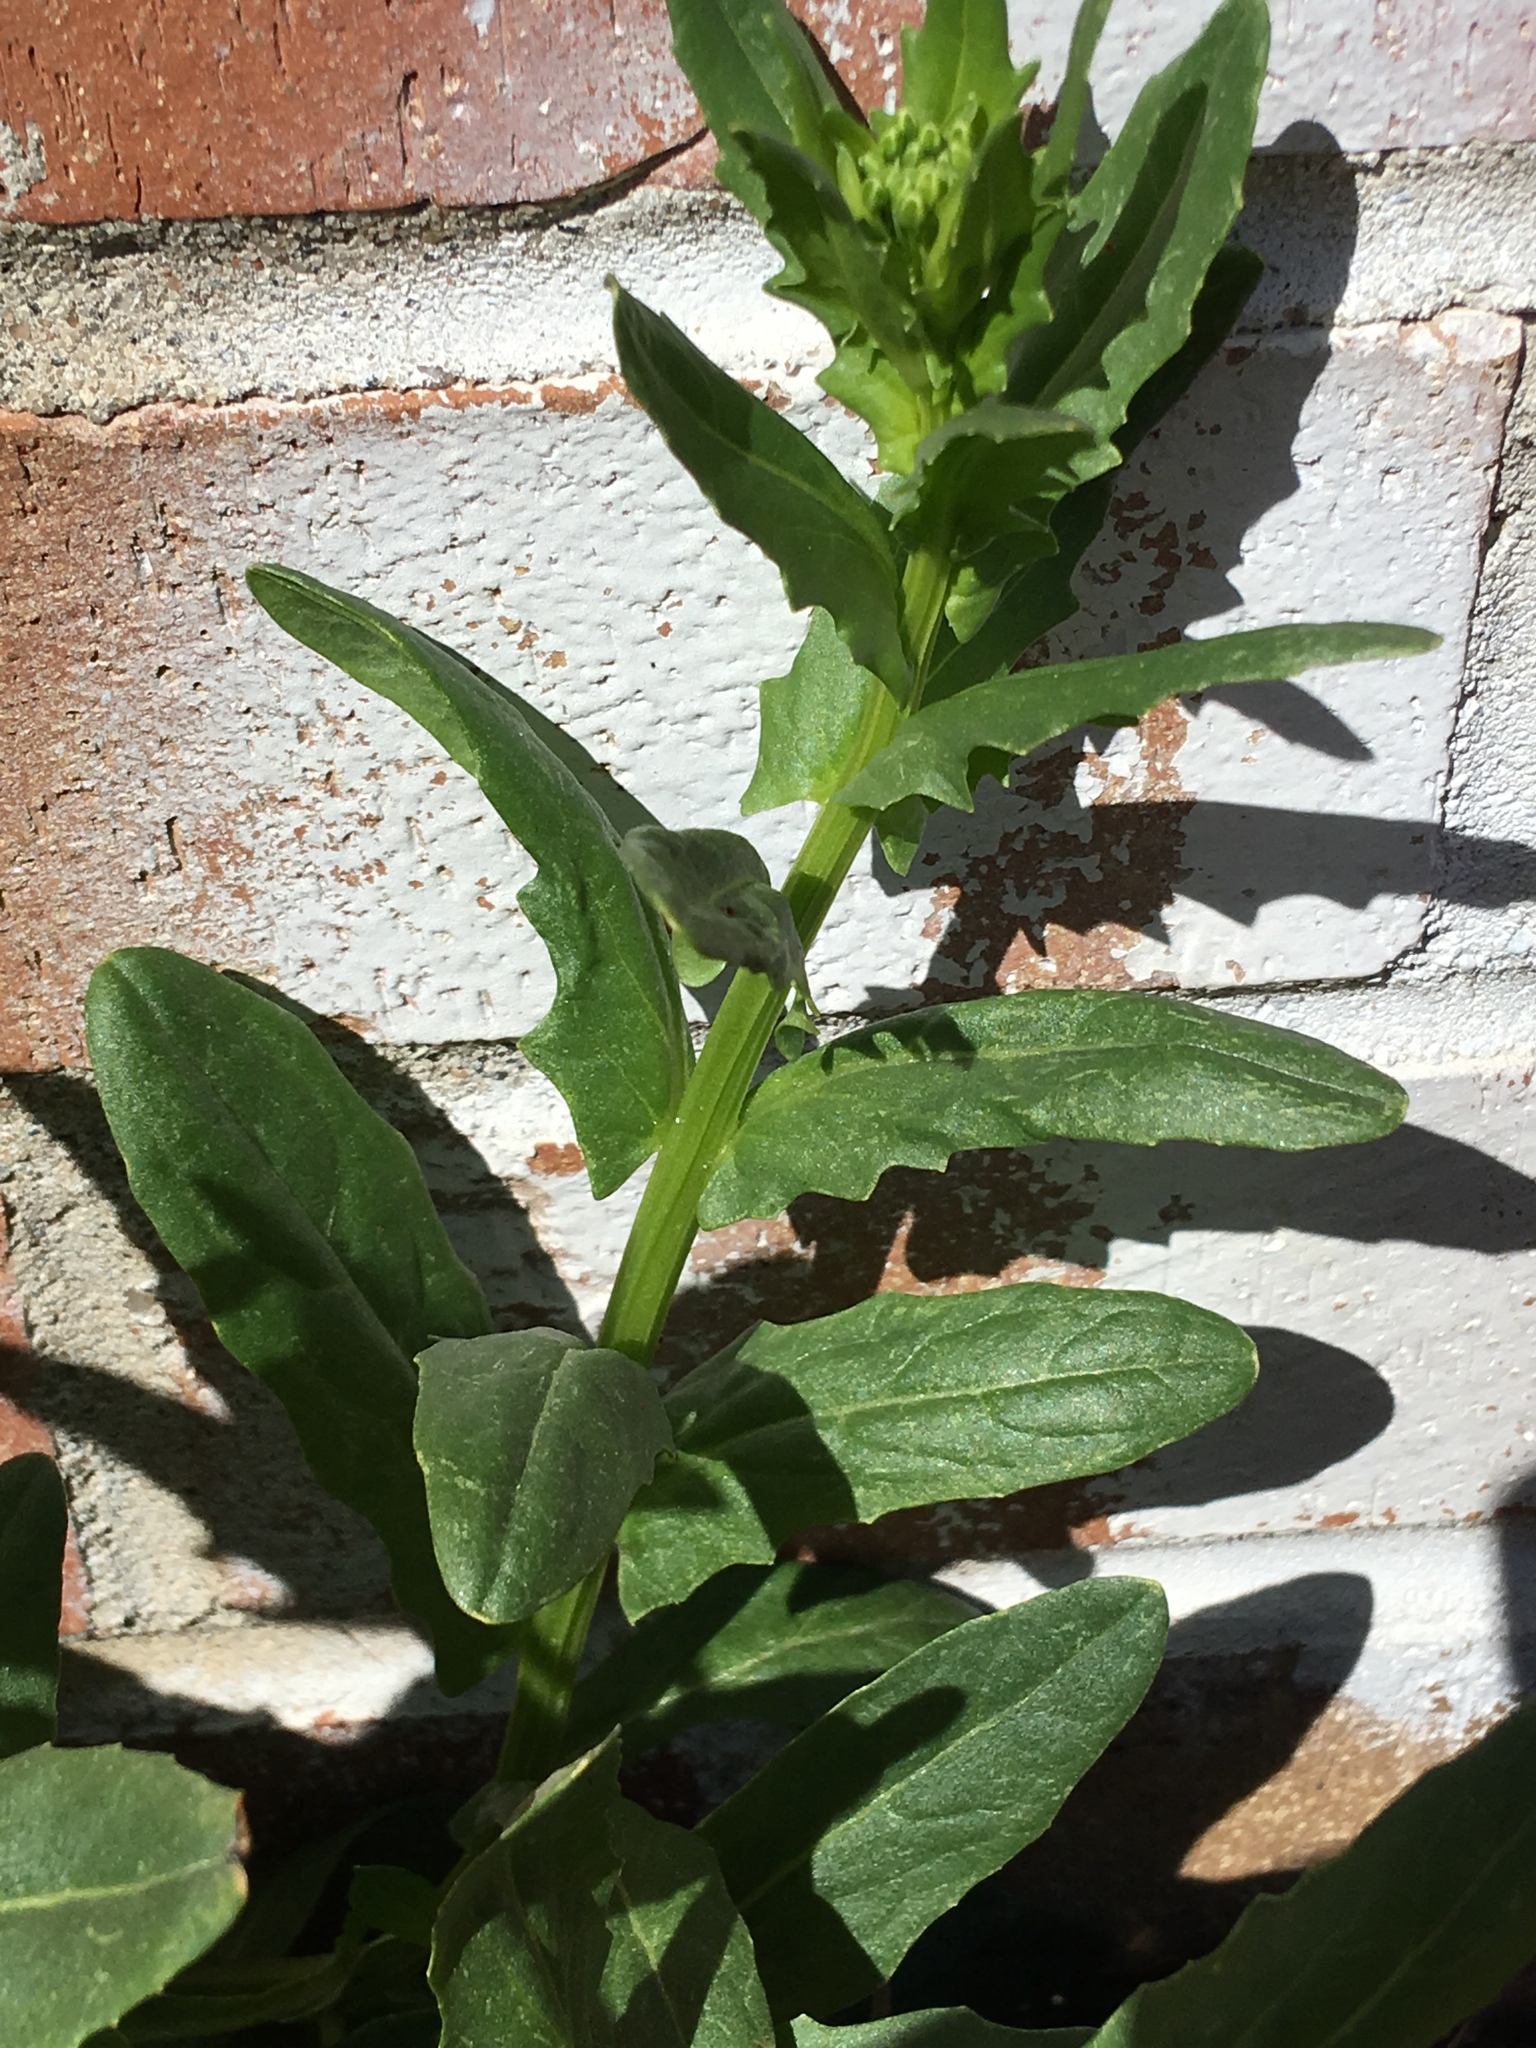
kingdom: Plantae
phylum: Tracheophyta
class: Magnoliopsida
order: Brassicales
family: Brassicaceae
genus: Thlaspi
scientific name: Thlaspi arvense
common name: Field pennycress
